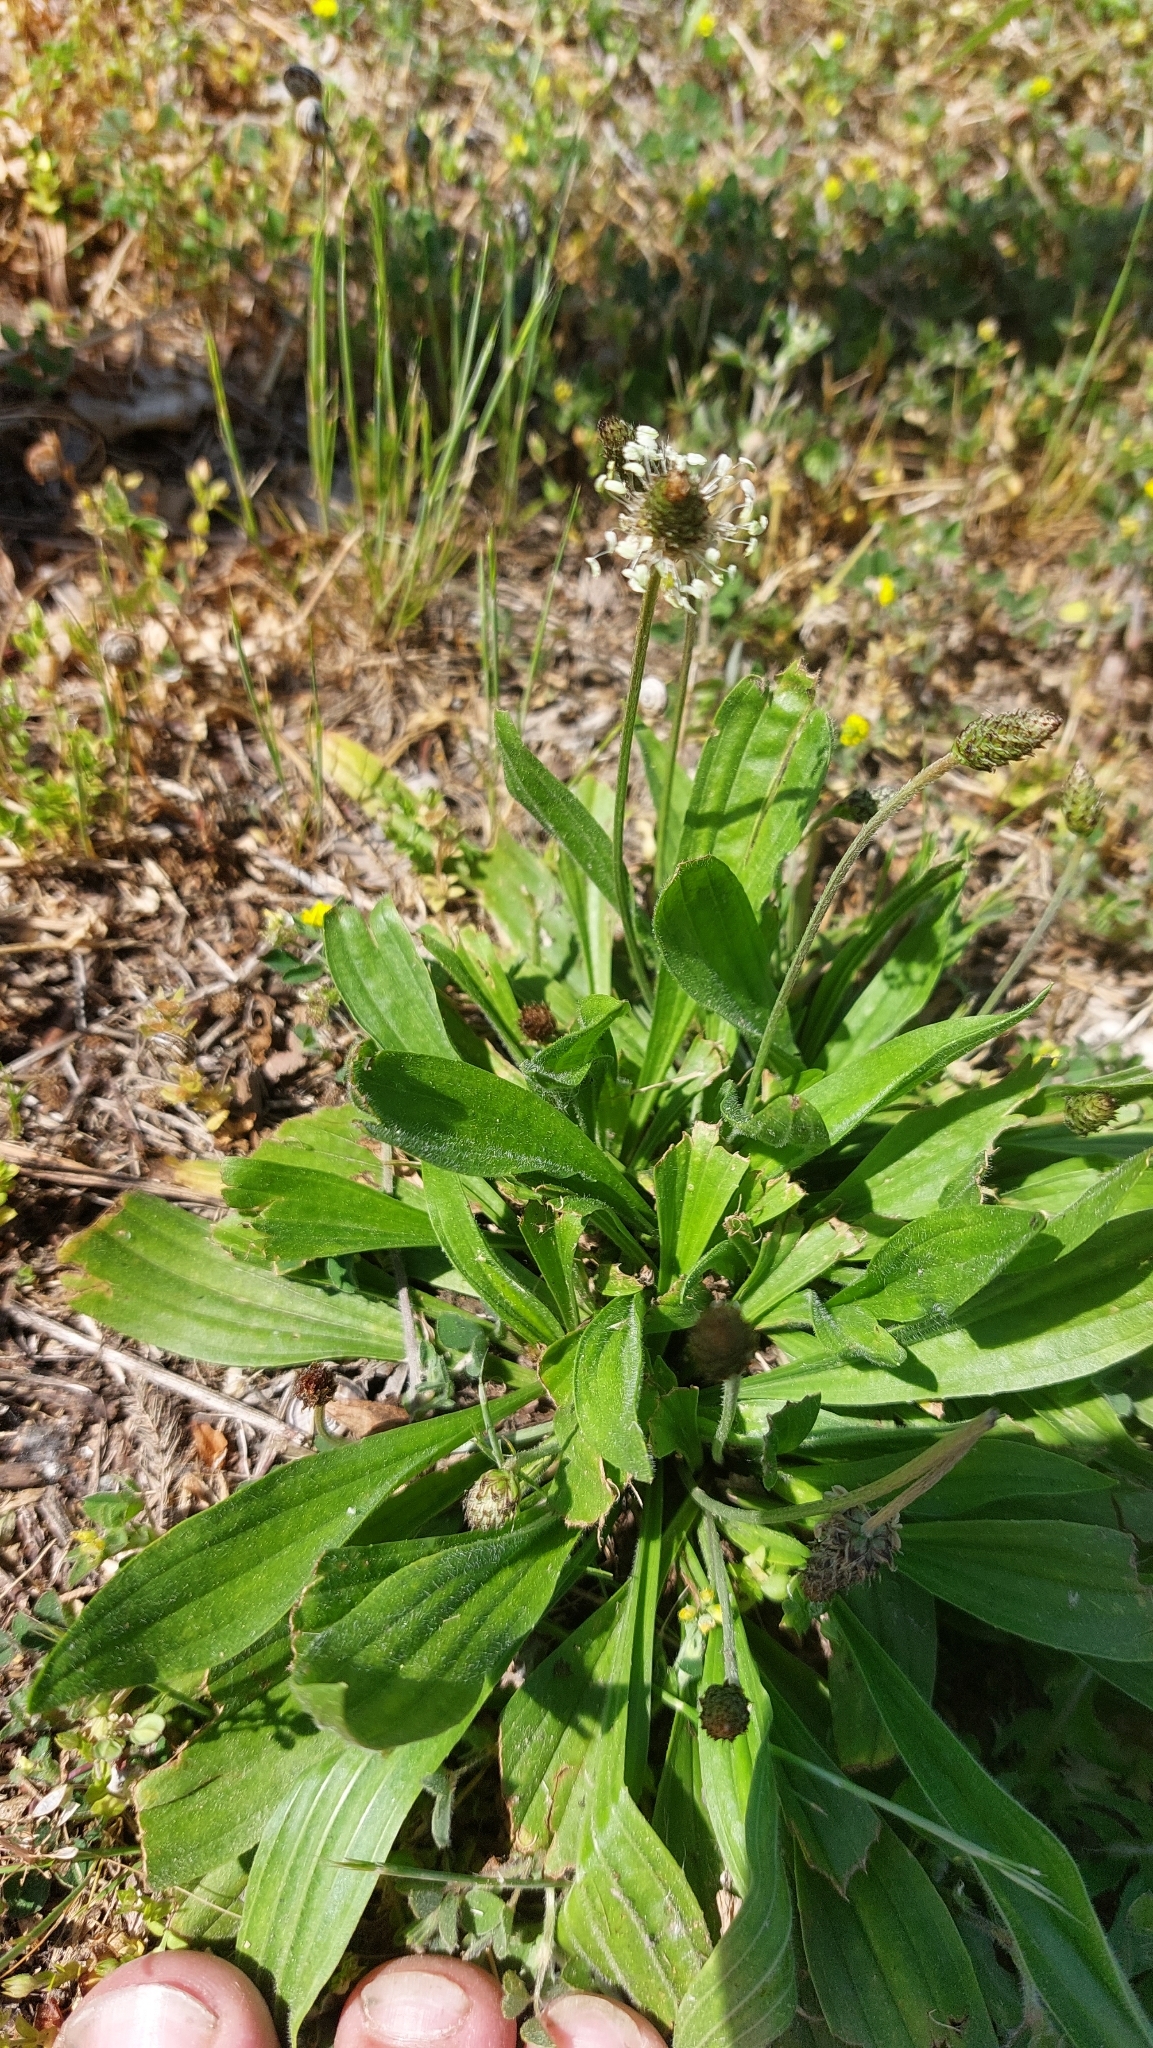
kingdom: Plantae
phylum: Tracheophyta
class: Magnoliopsida
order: Lamiales
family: Plantaginaceae
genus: Plantago
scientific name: Plantago lanceolata
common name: Ribwort plantain
